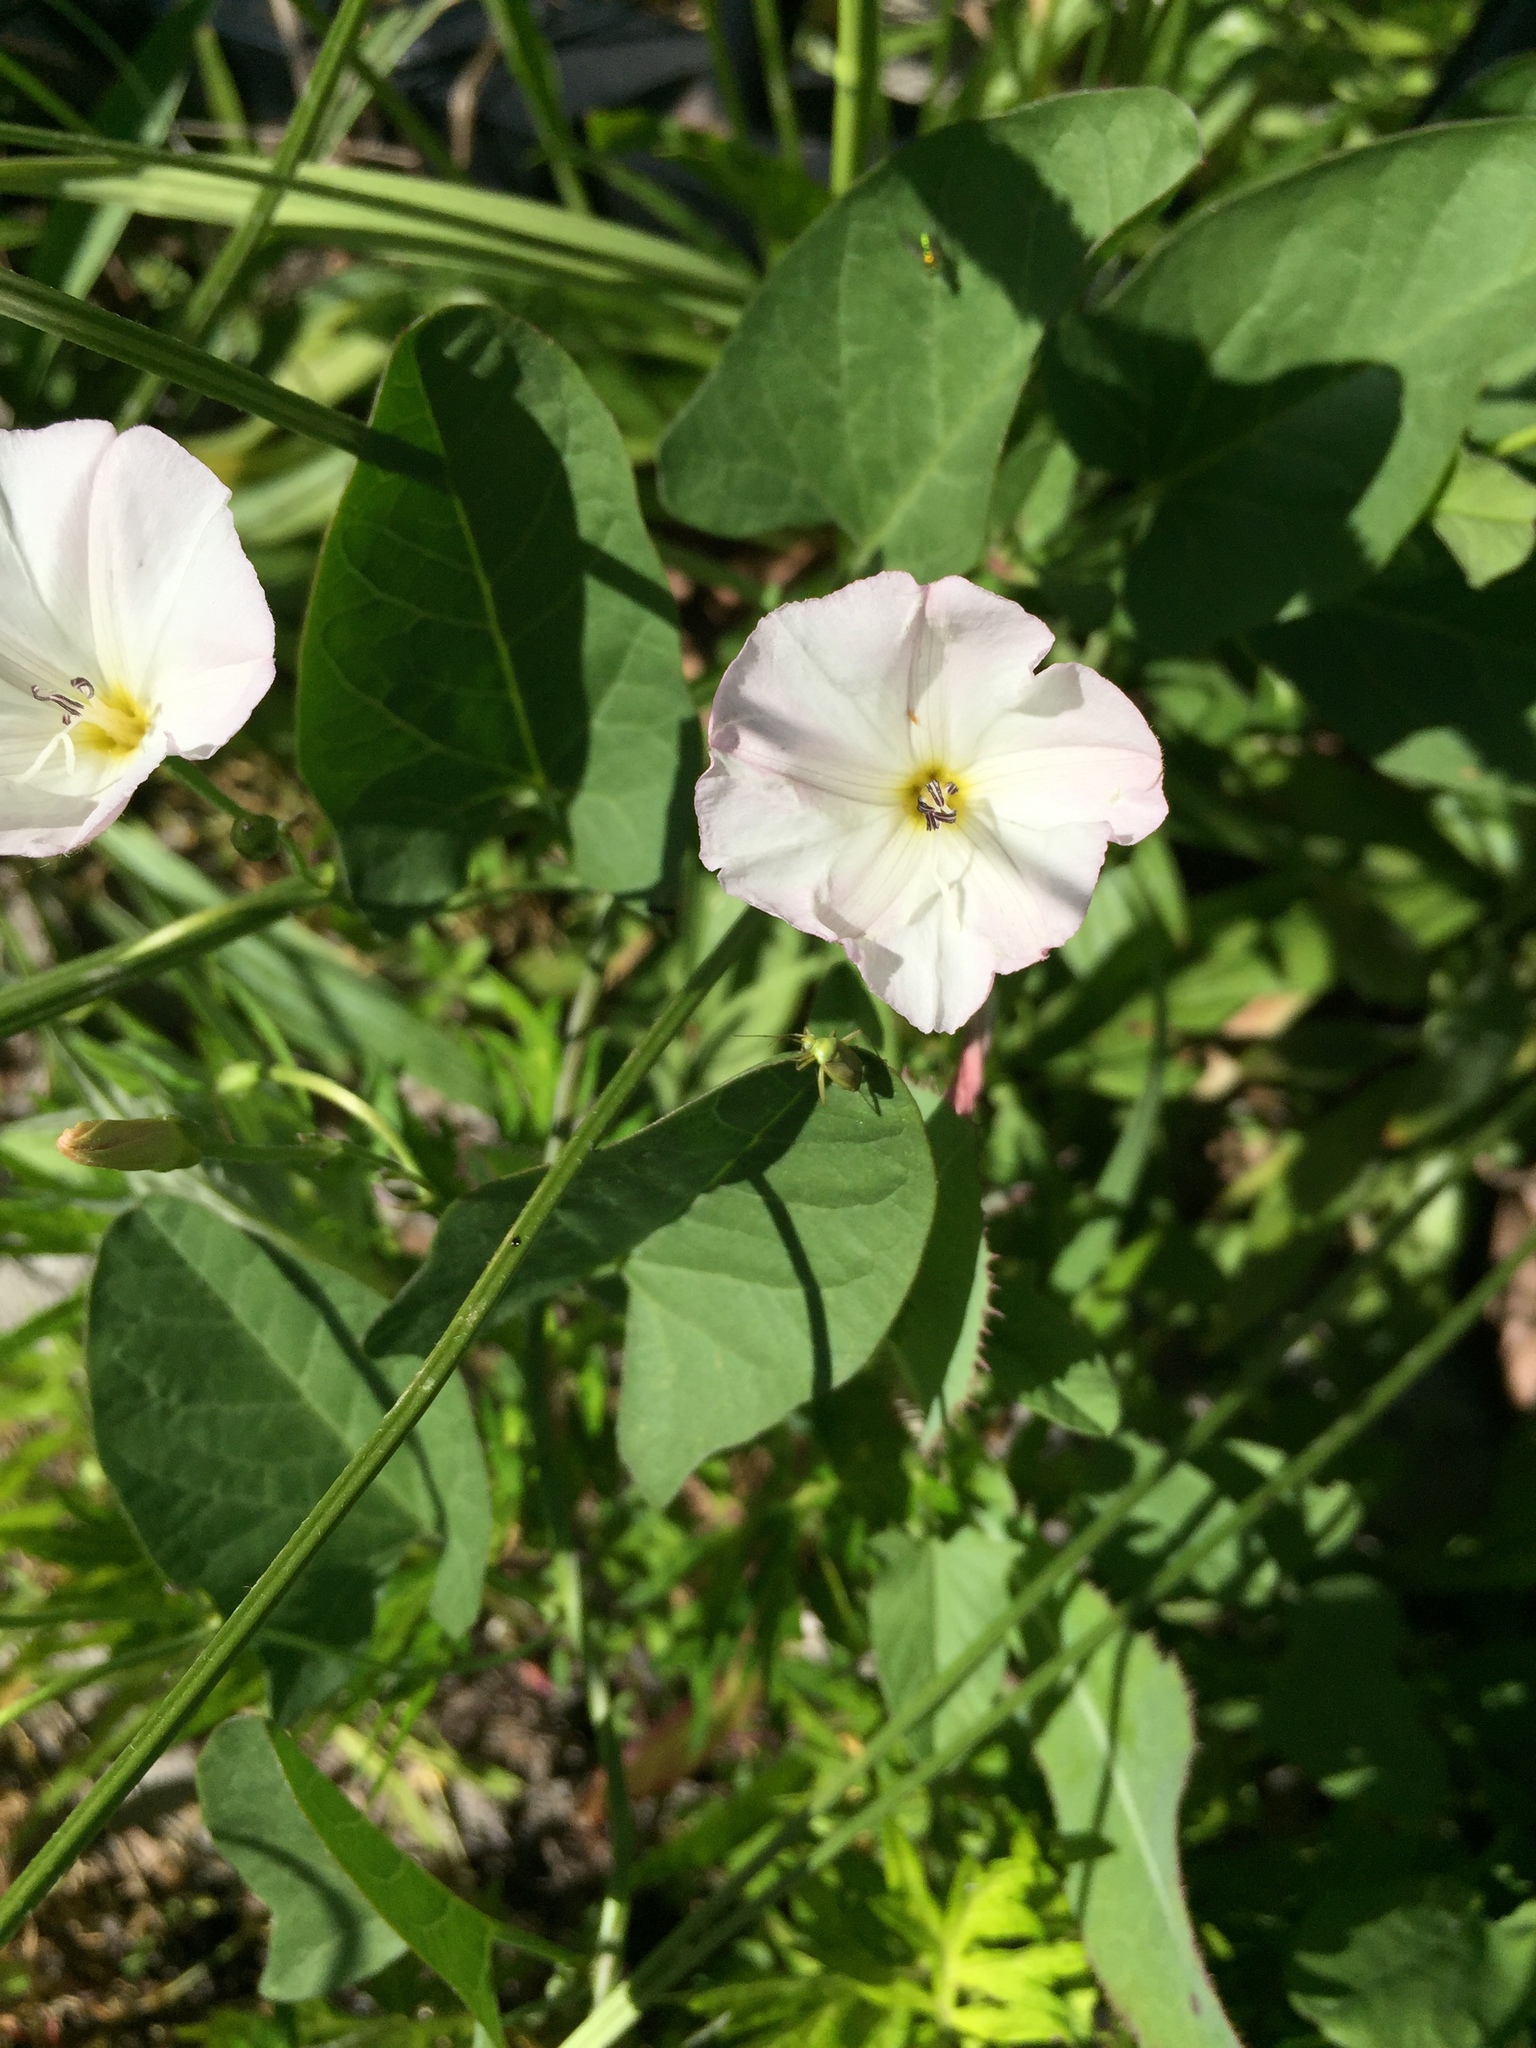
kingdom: Plantae
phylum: Tracheophyta
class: Magnoliopsida
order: Solanales
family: Convolvulaceae
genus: Convolvulus
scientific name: Convolvulus arvensis
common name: Field bindweed
